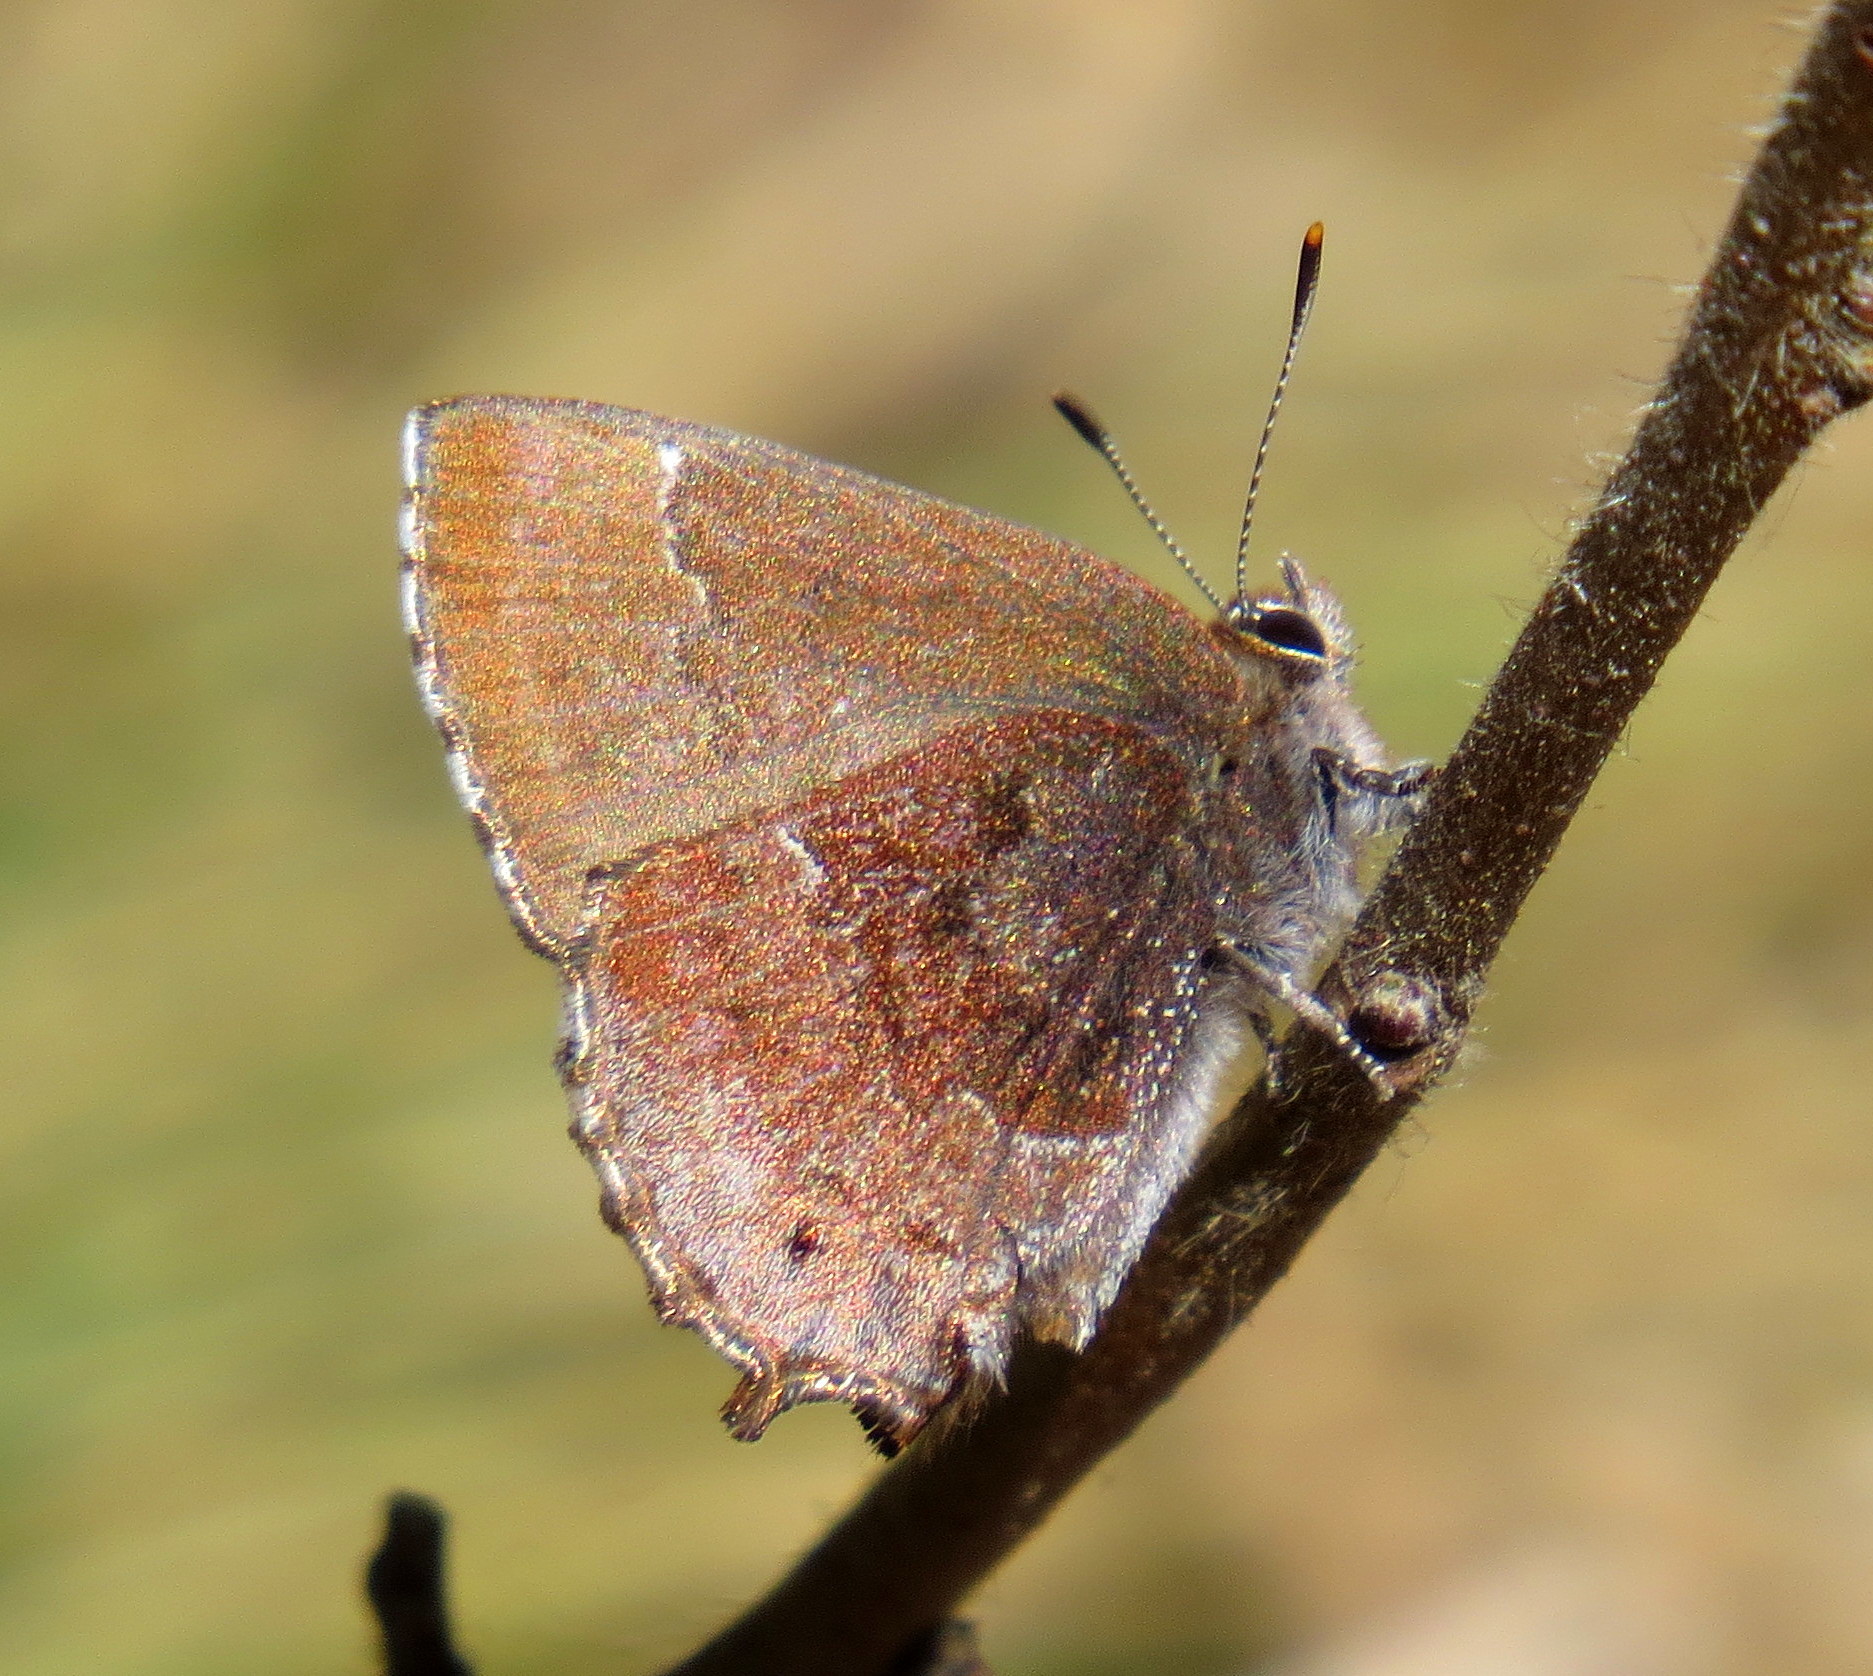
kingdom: Animalia
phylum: Arthropoda
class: Insecta
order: Lepidoptera
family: Lycaenidae
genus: Thecla
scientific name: Thecla irus
